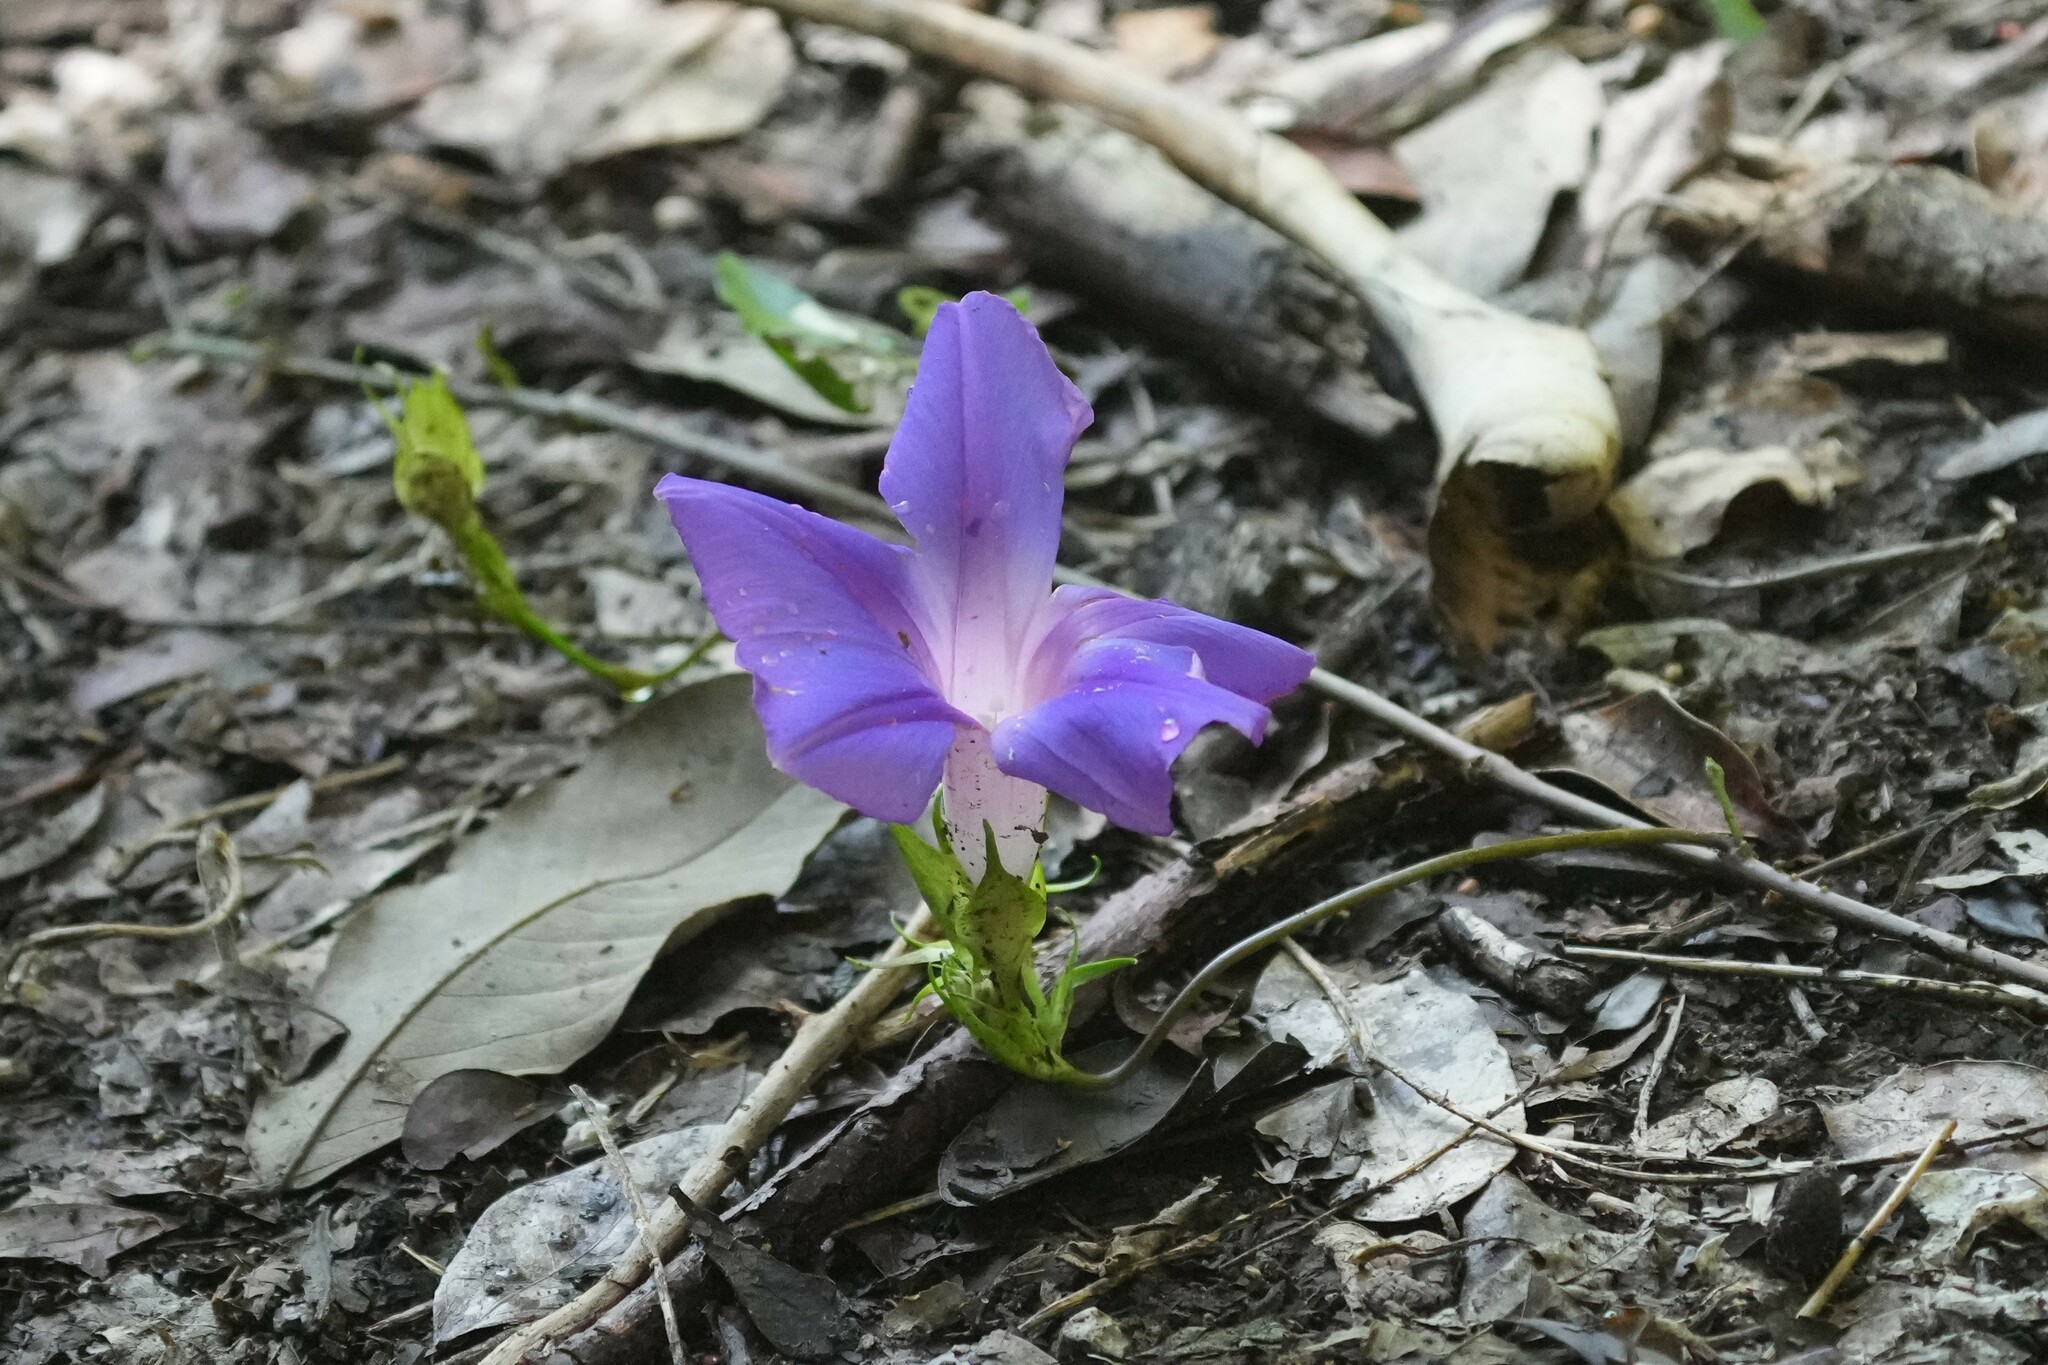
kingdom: Plantae
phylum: Tracheophyta
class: Magnoliopsida
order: Solanales
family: Convolvulaceae
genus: Ipomoea
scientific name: Ipomoea indica
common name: Blue dawnflower
